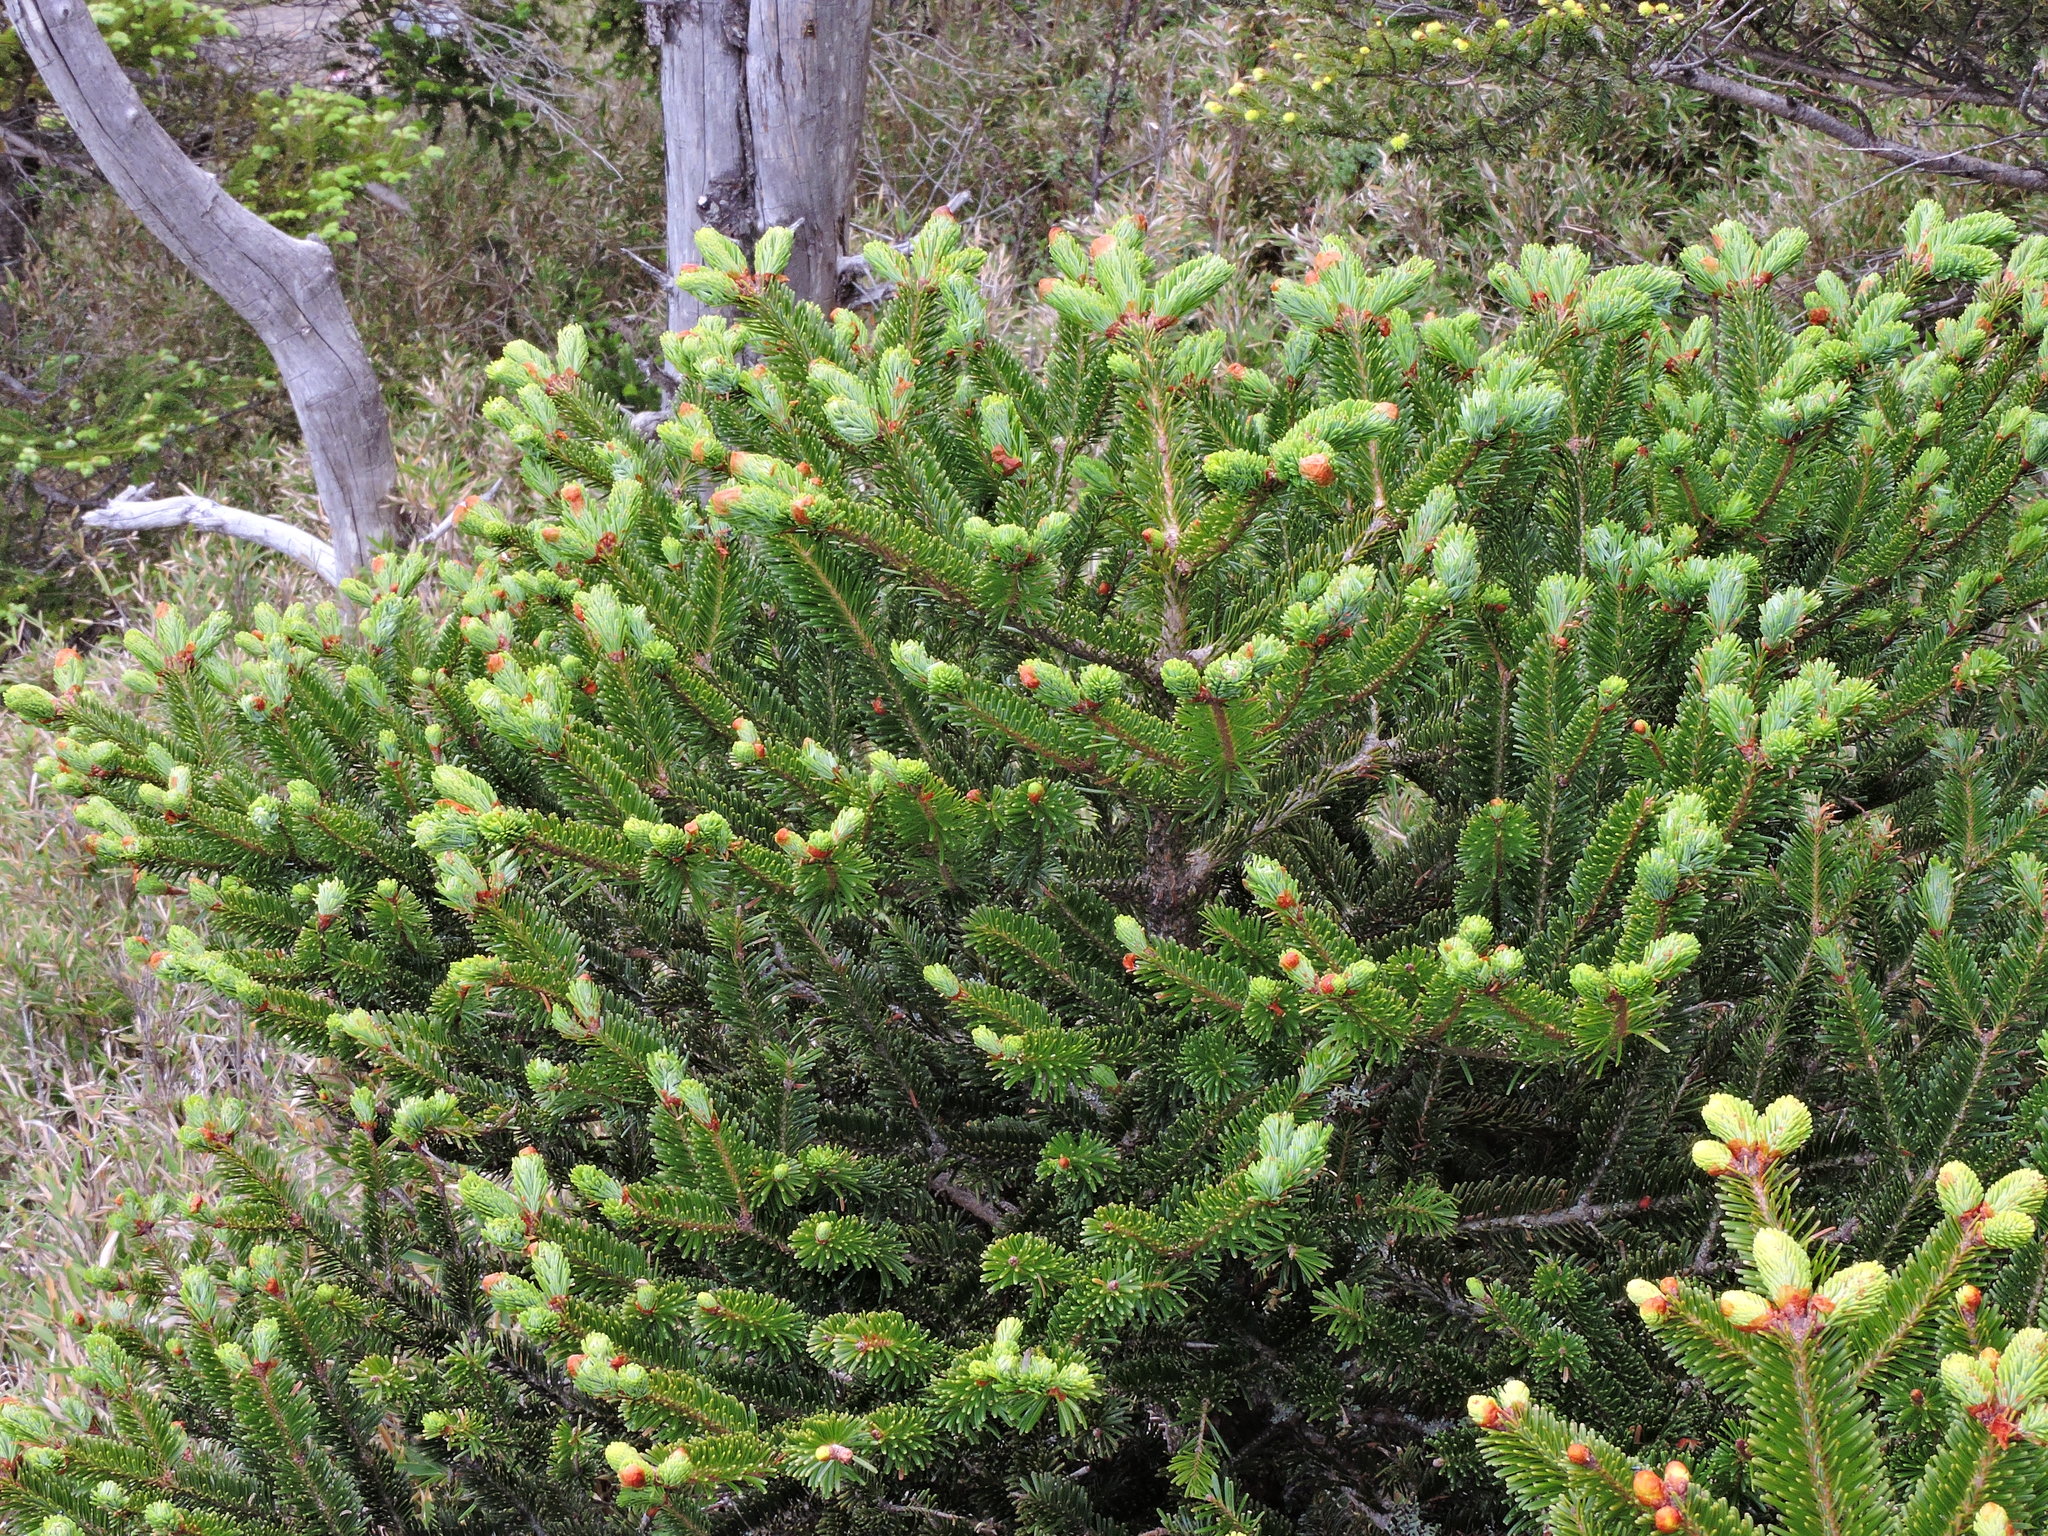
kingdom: Plantae
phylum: Tracheophyta
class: Pinopsida
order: Pinales
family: Pinaceae
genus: Abies
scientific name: Abies kawakamii
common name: Taiwan fir
